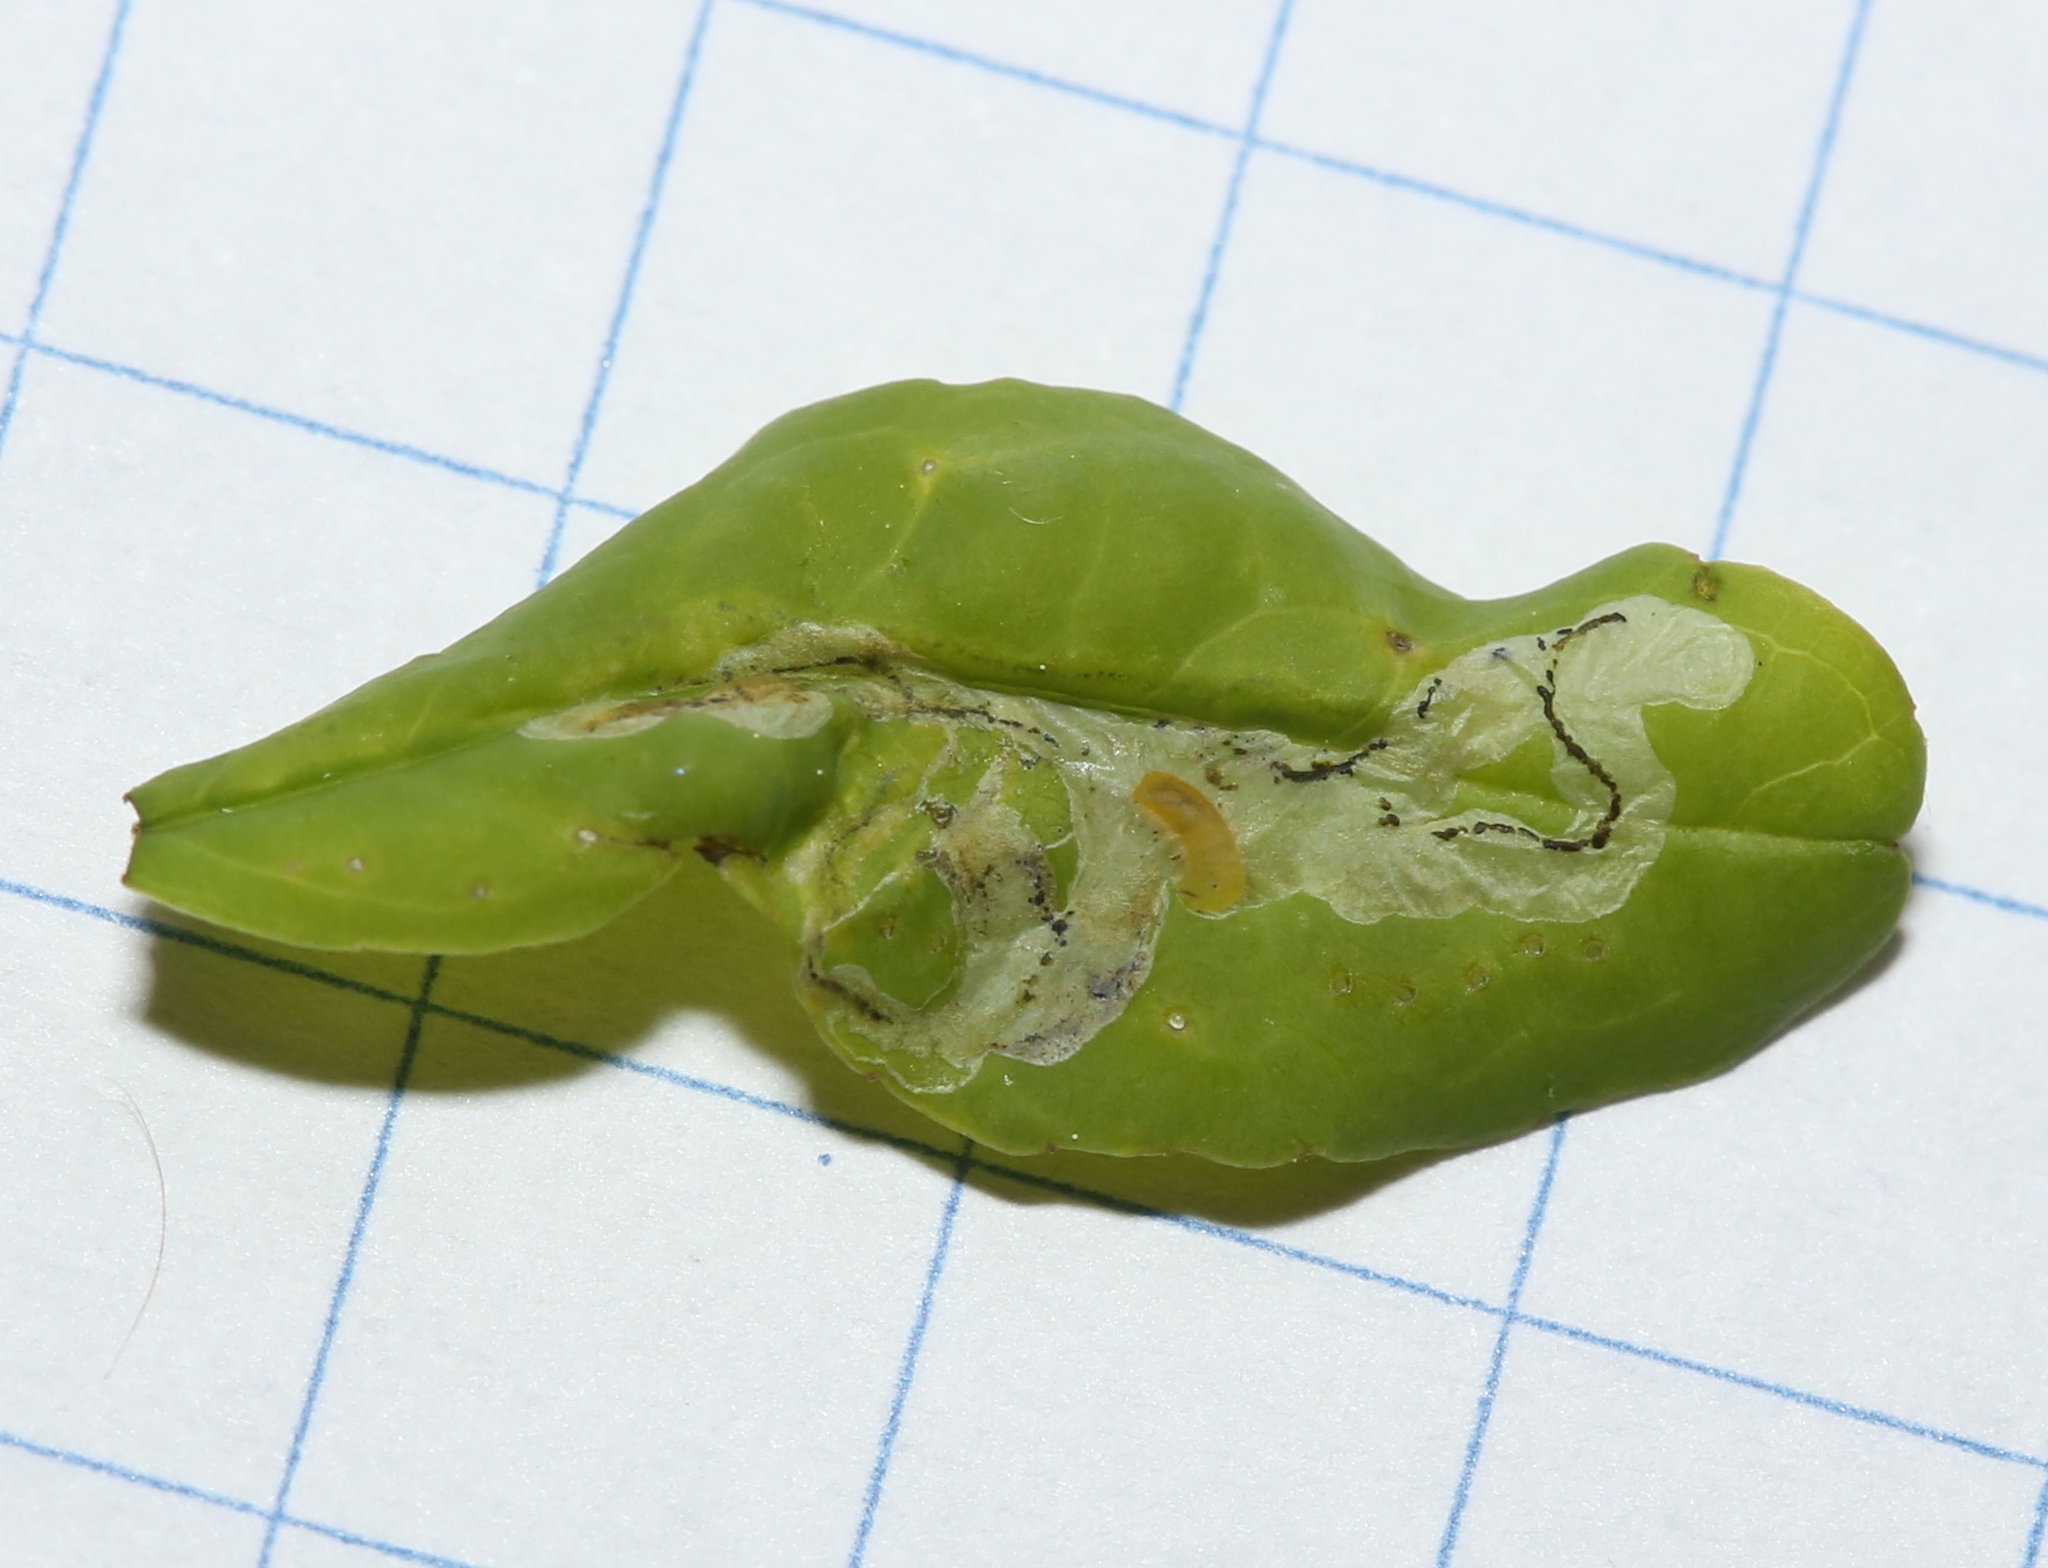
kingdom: Animalia
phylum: Arthropoda
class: Insecta
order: Diptera
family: Agromyzidae
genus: Phytomyza
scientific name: Phytomyza ditmani
